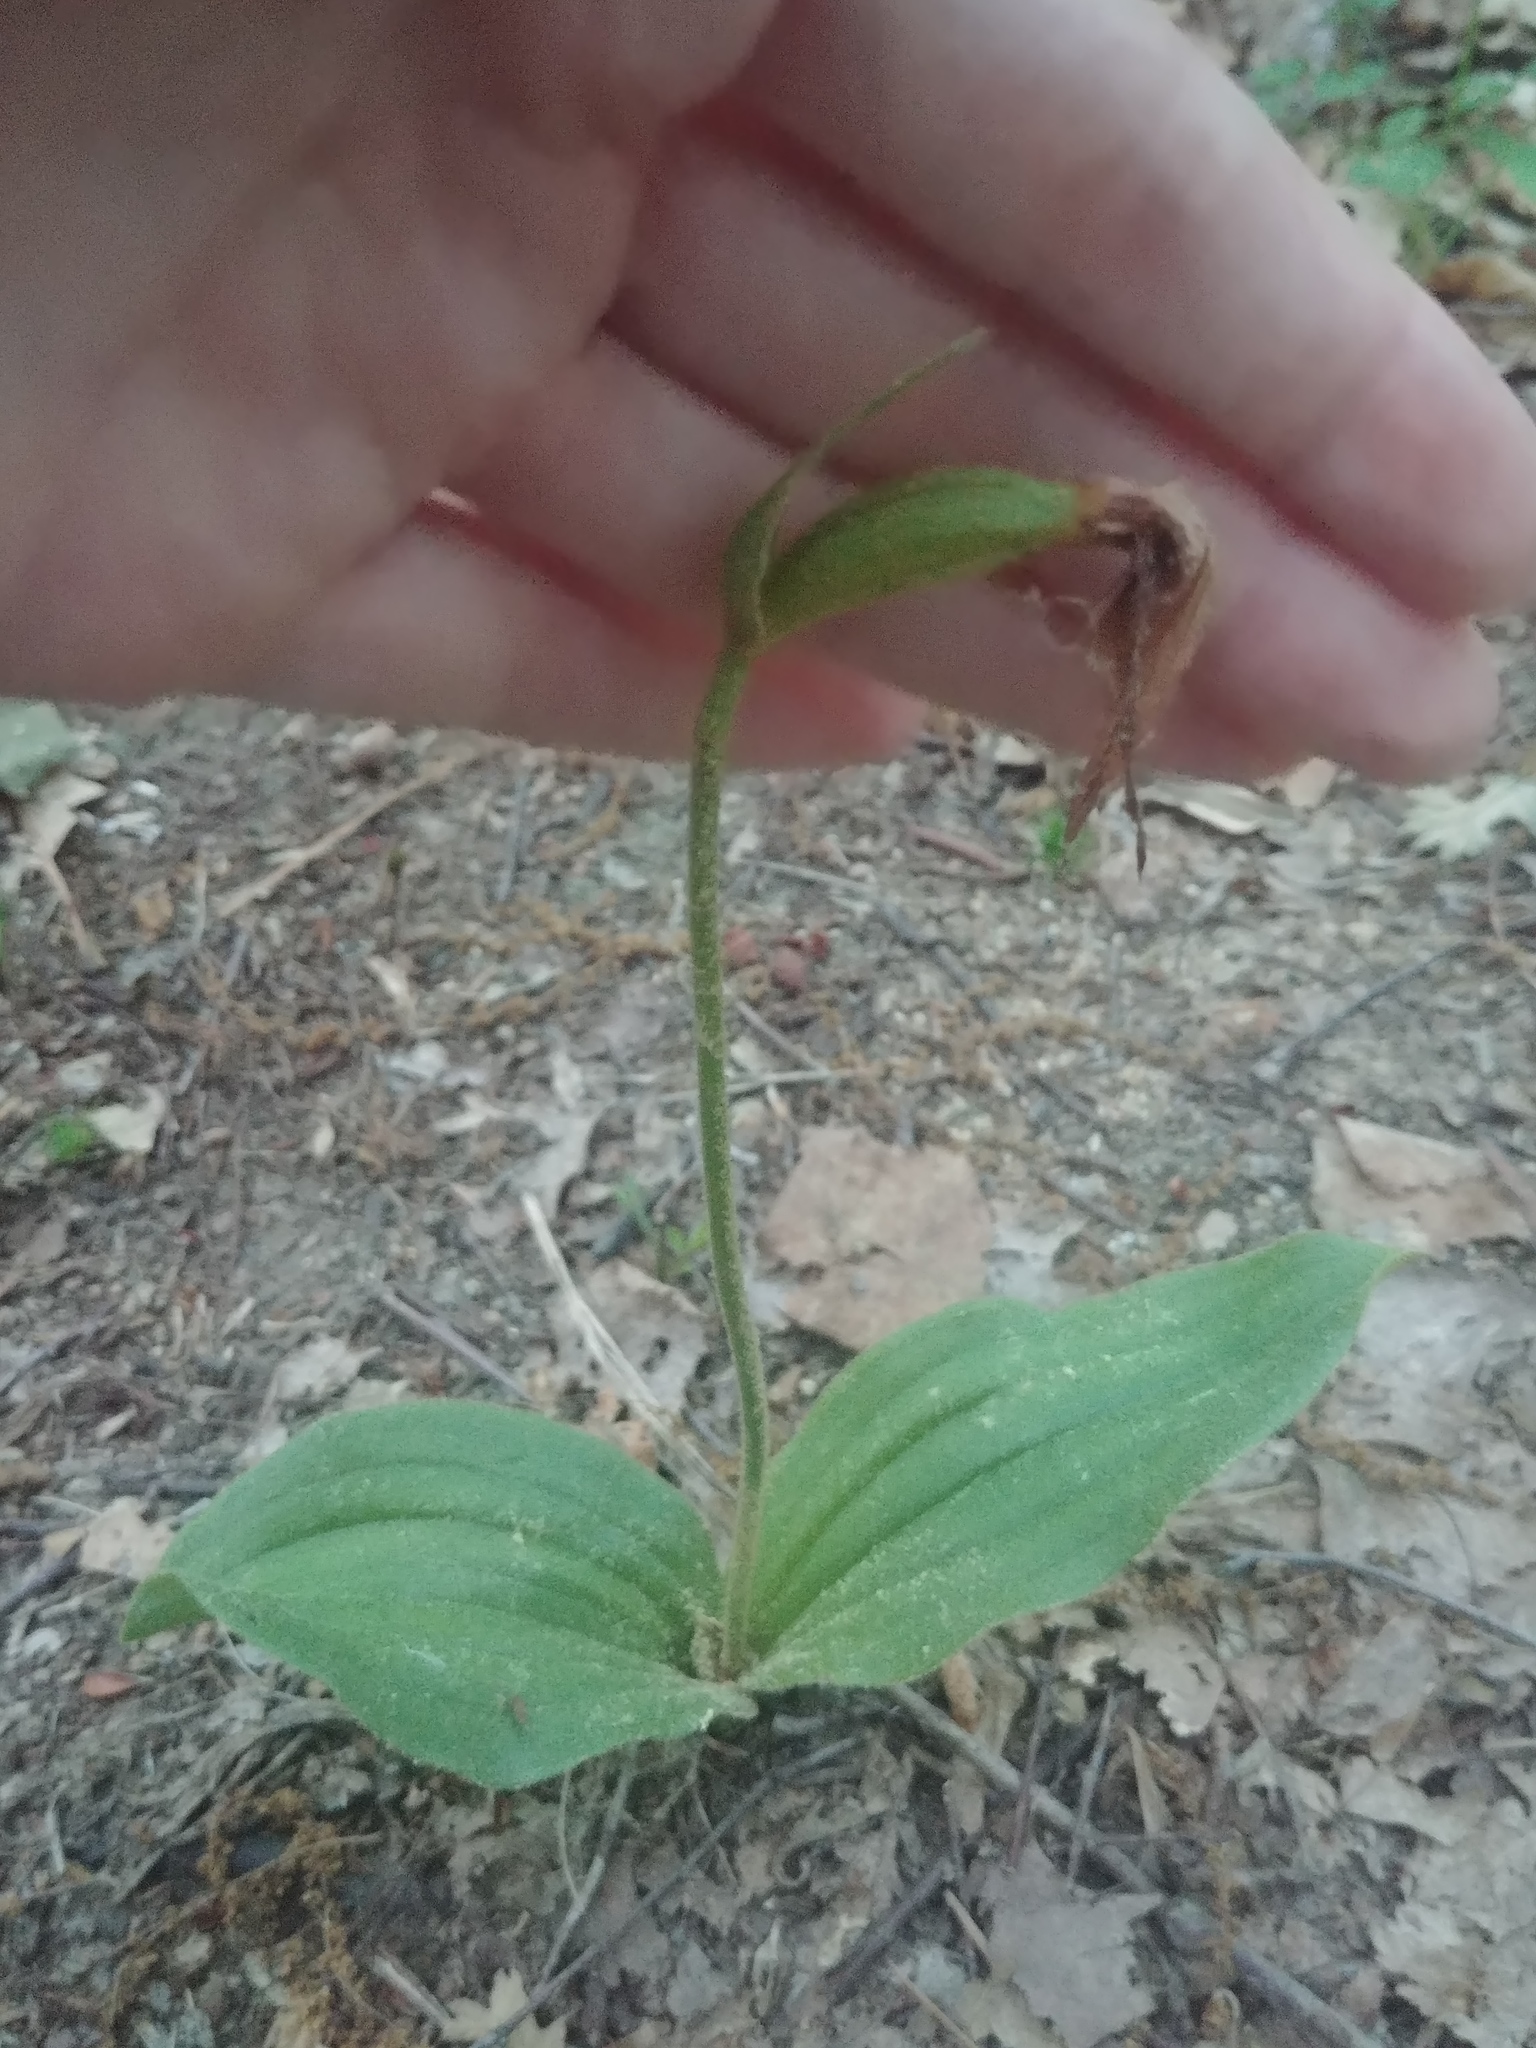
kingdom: Plantae
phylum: Tracheophyta
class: Liliopsida
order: Asparagales
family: Orchidaceae
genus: Cypripedium
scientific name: Cypripedium acaule
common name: Pink lady's-slipper
